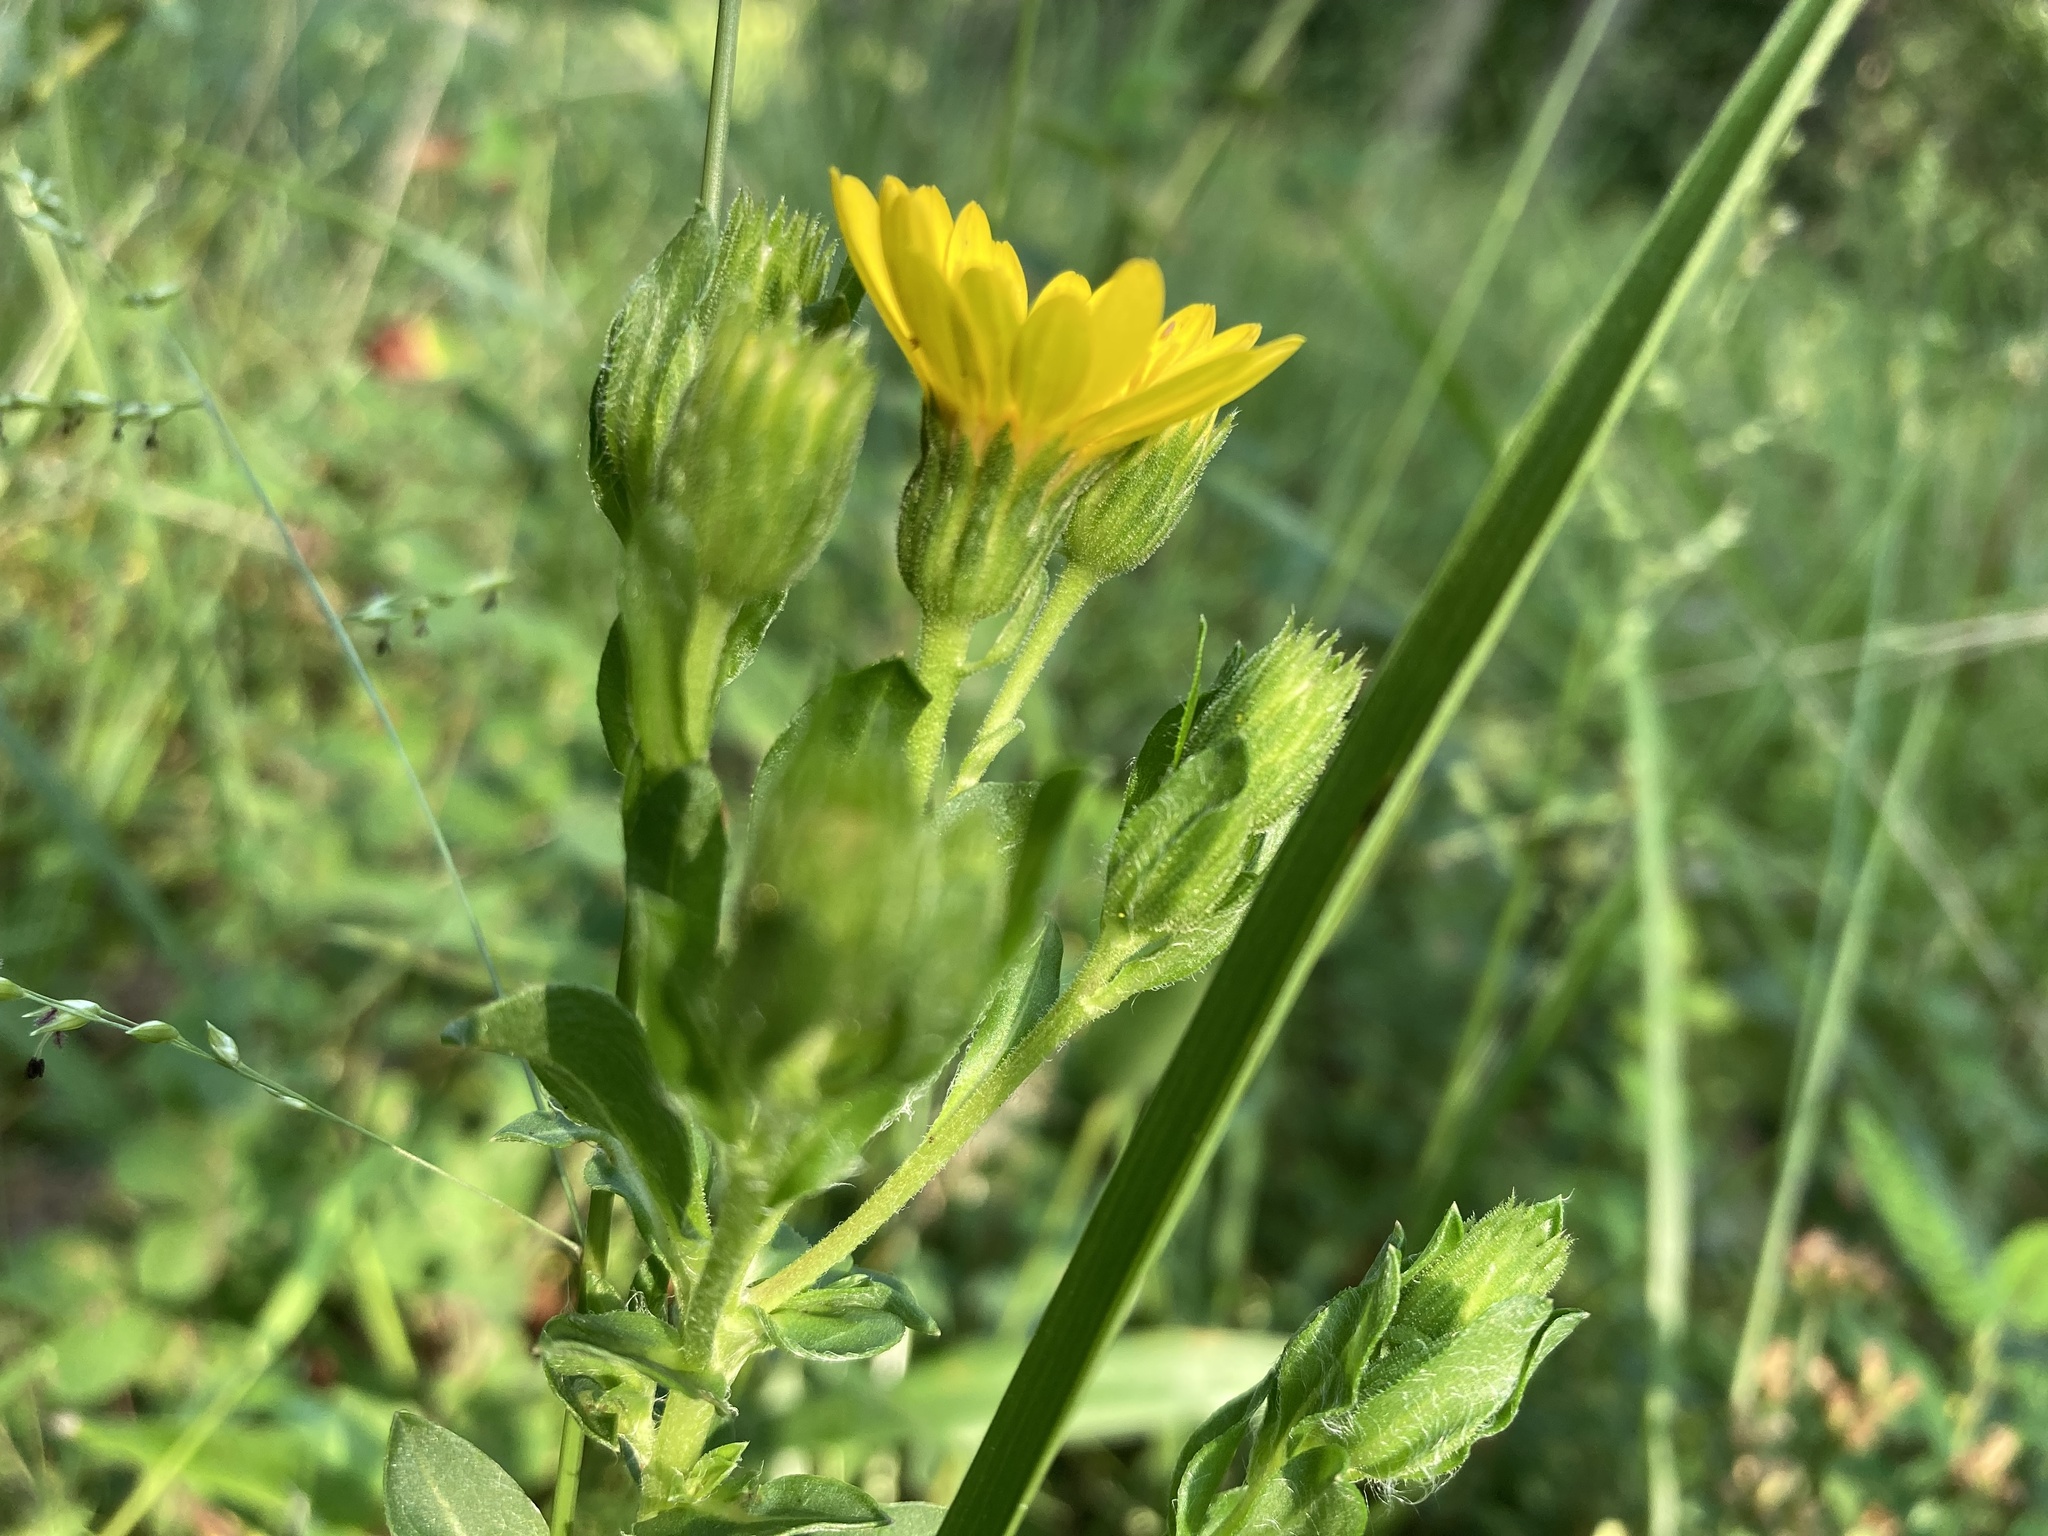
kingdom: Plantae
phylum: Tracheophyta
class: Magnoliopsida
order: Asterales
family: Asteraceae
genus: Chrysopsis
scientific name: Chrysopsis mariana
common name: Maryland golden-aster
